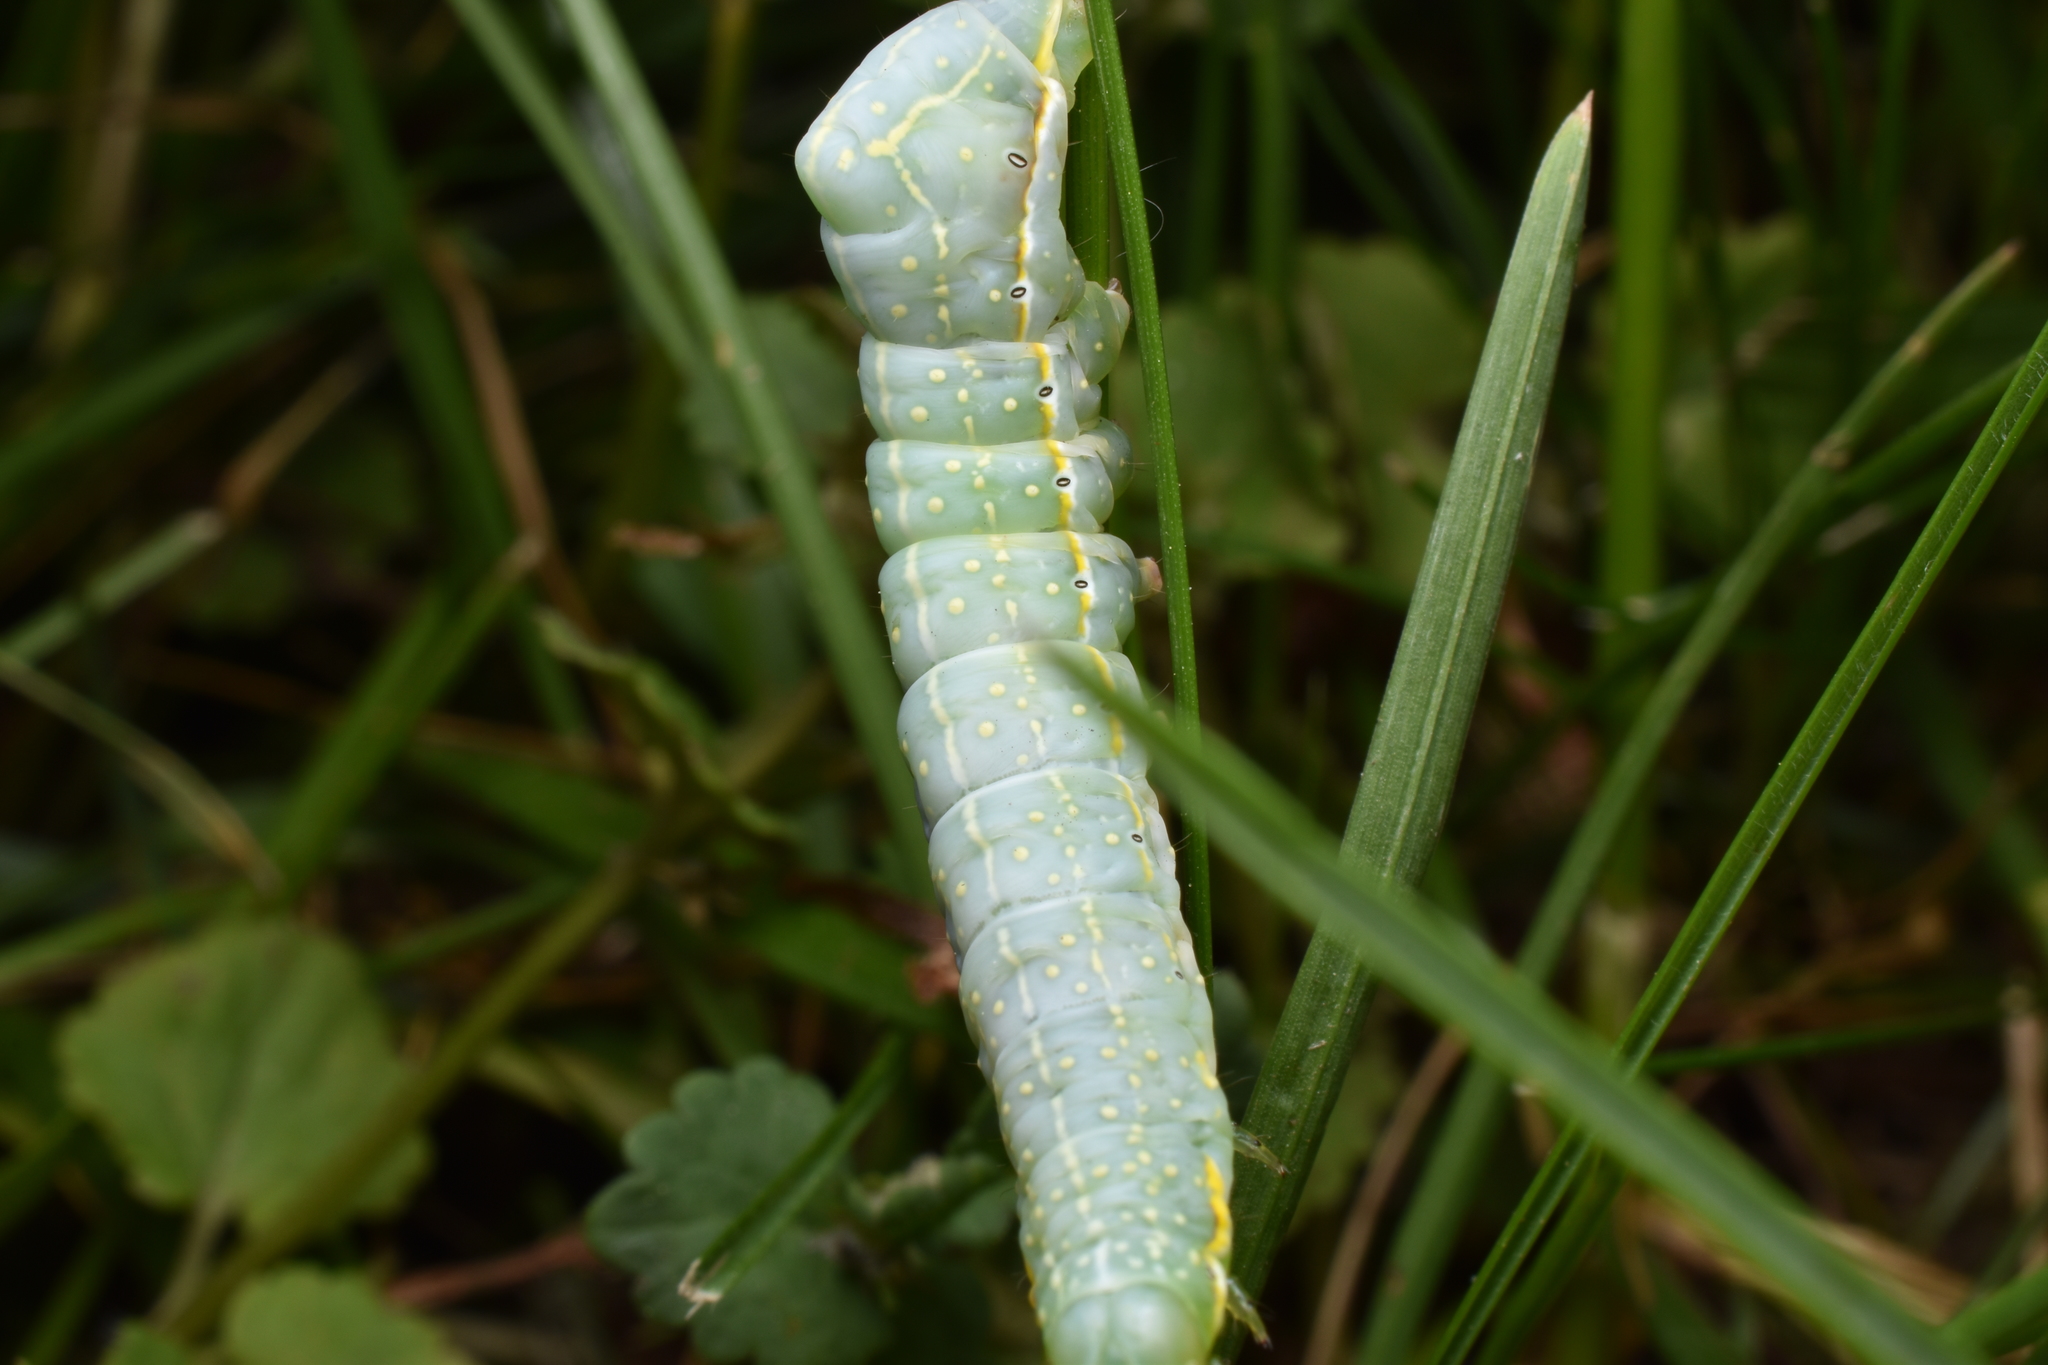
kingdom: Animalia
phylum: Arthropoda
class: Insecta
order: Lepidoptera
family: Noctuidae
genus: Amphipyra
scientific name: Amphipyra pyramidoides
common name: American copper underwing
